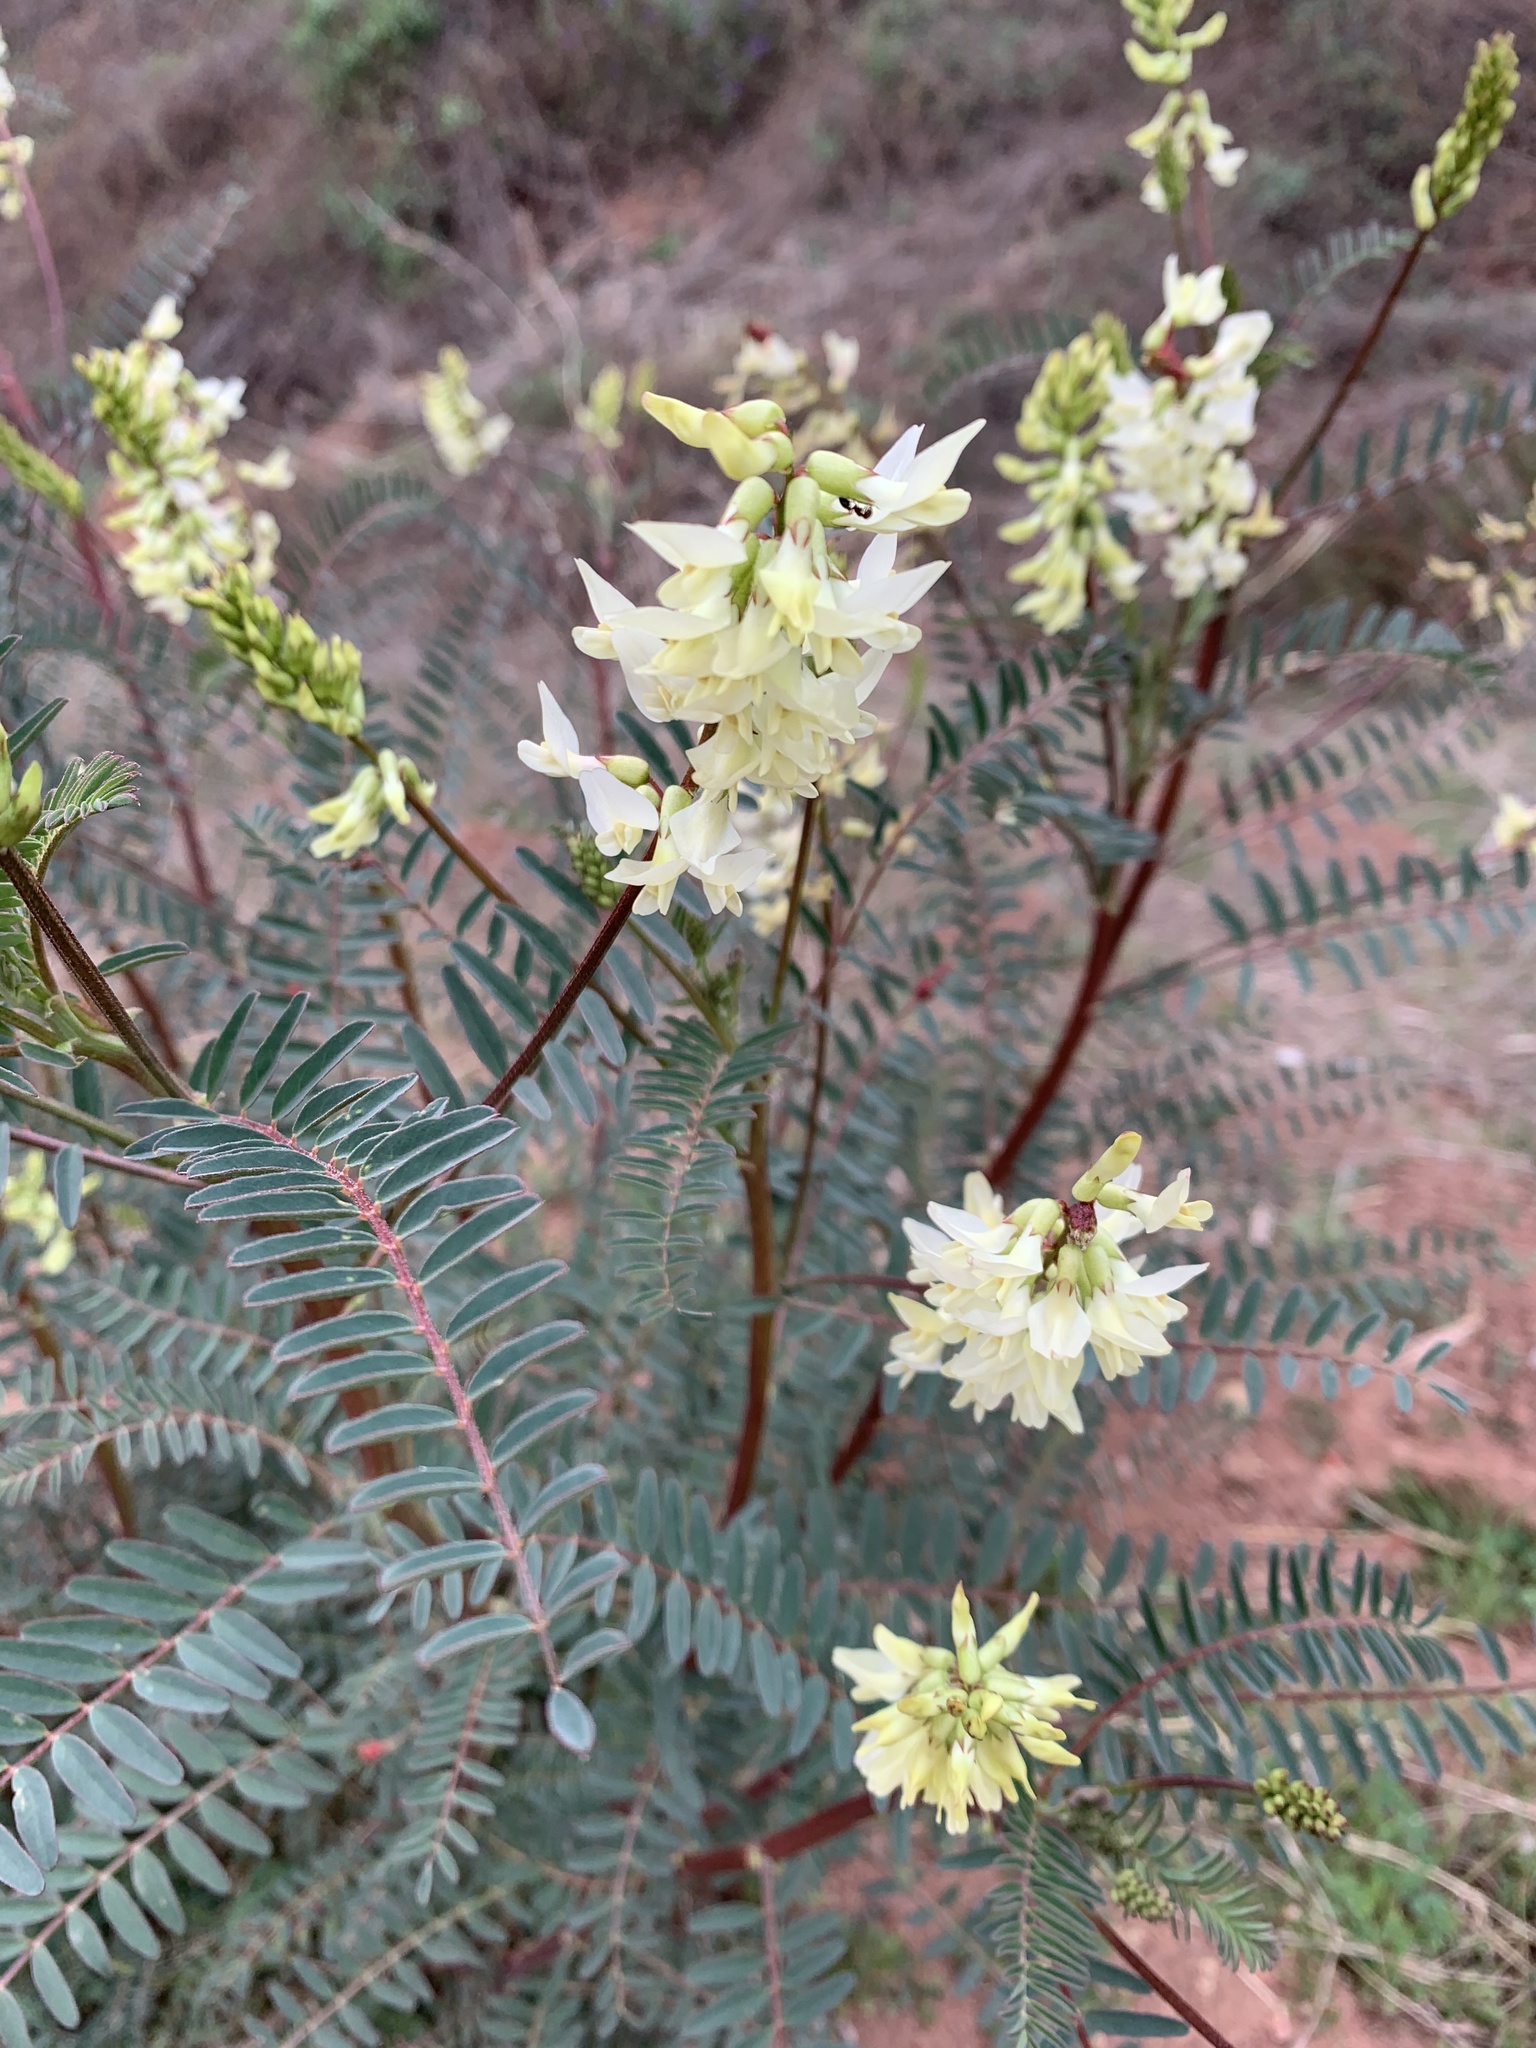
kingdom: Plantae
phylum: Tracheophyta
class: Magnoliopsida
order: Fabales
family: Fabaceae
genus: Astragalus
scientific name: Astragalus trichopodus
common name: Santa barbara milk-vetch
